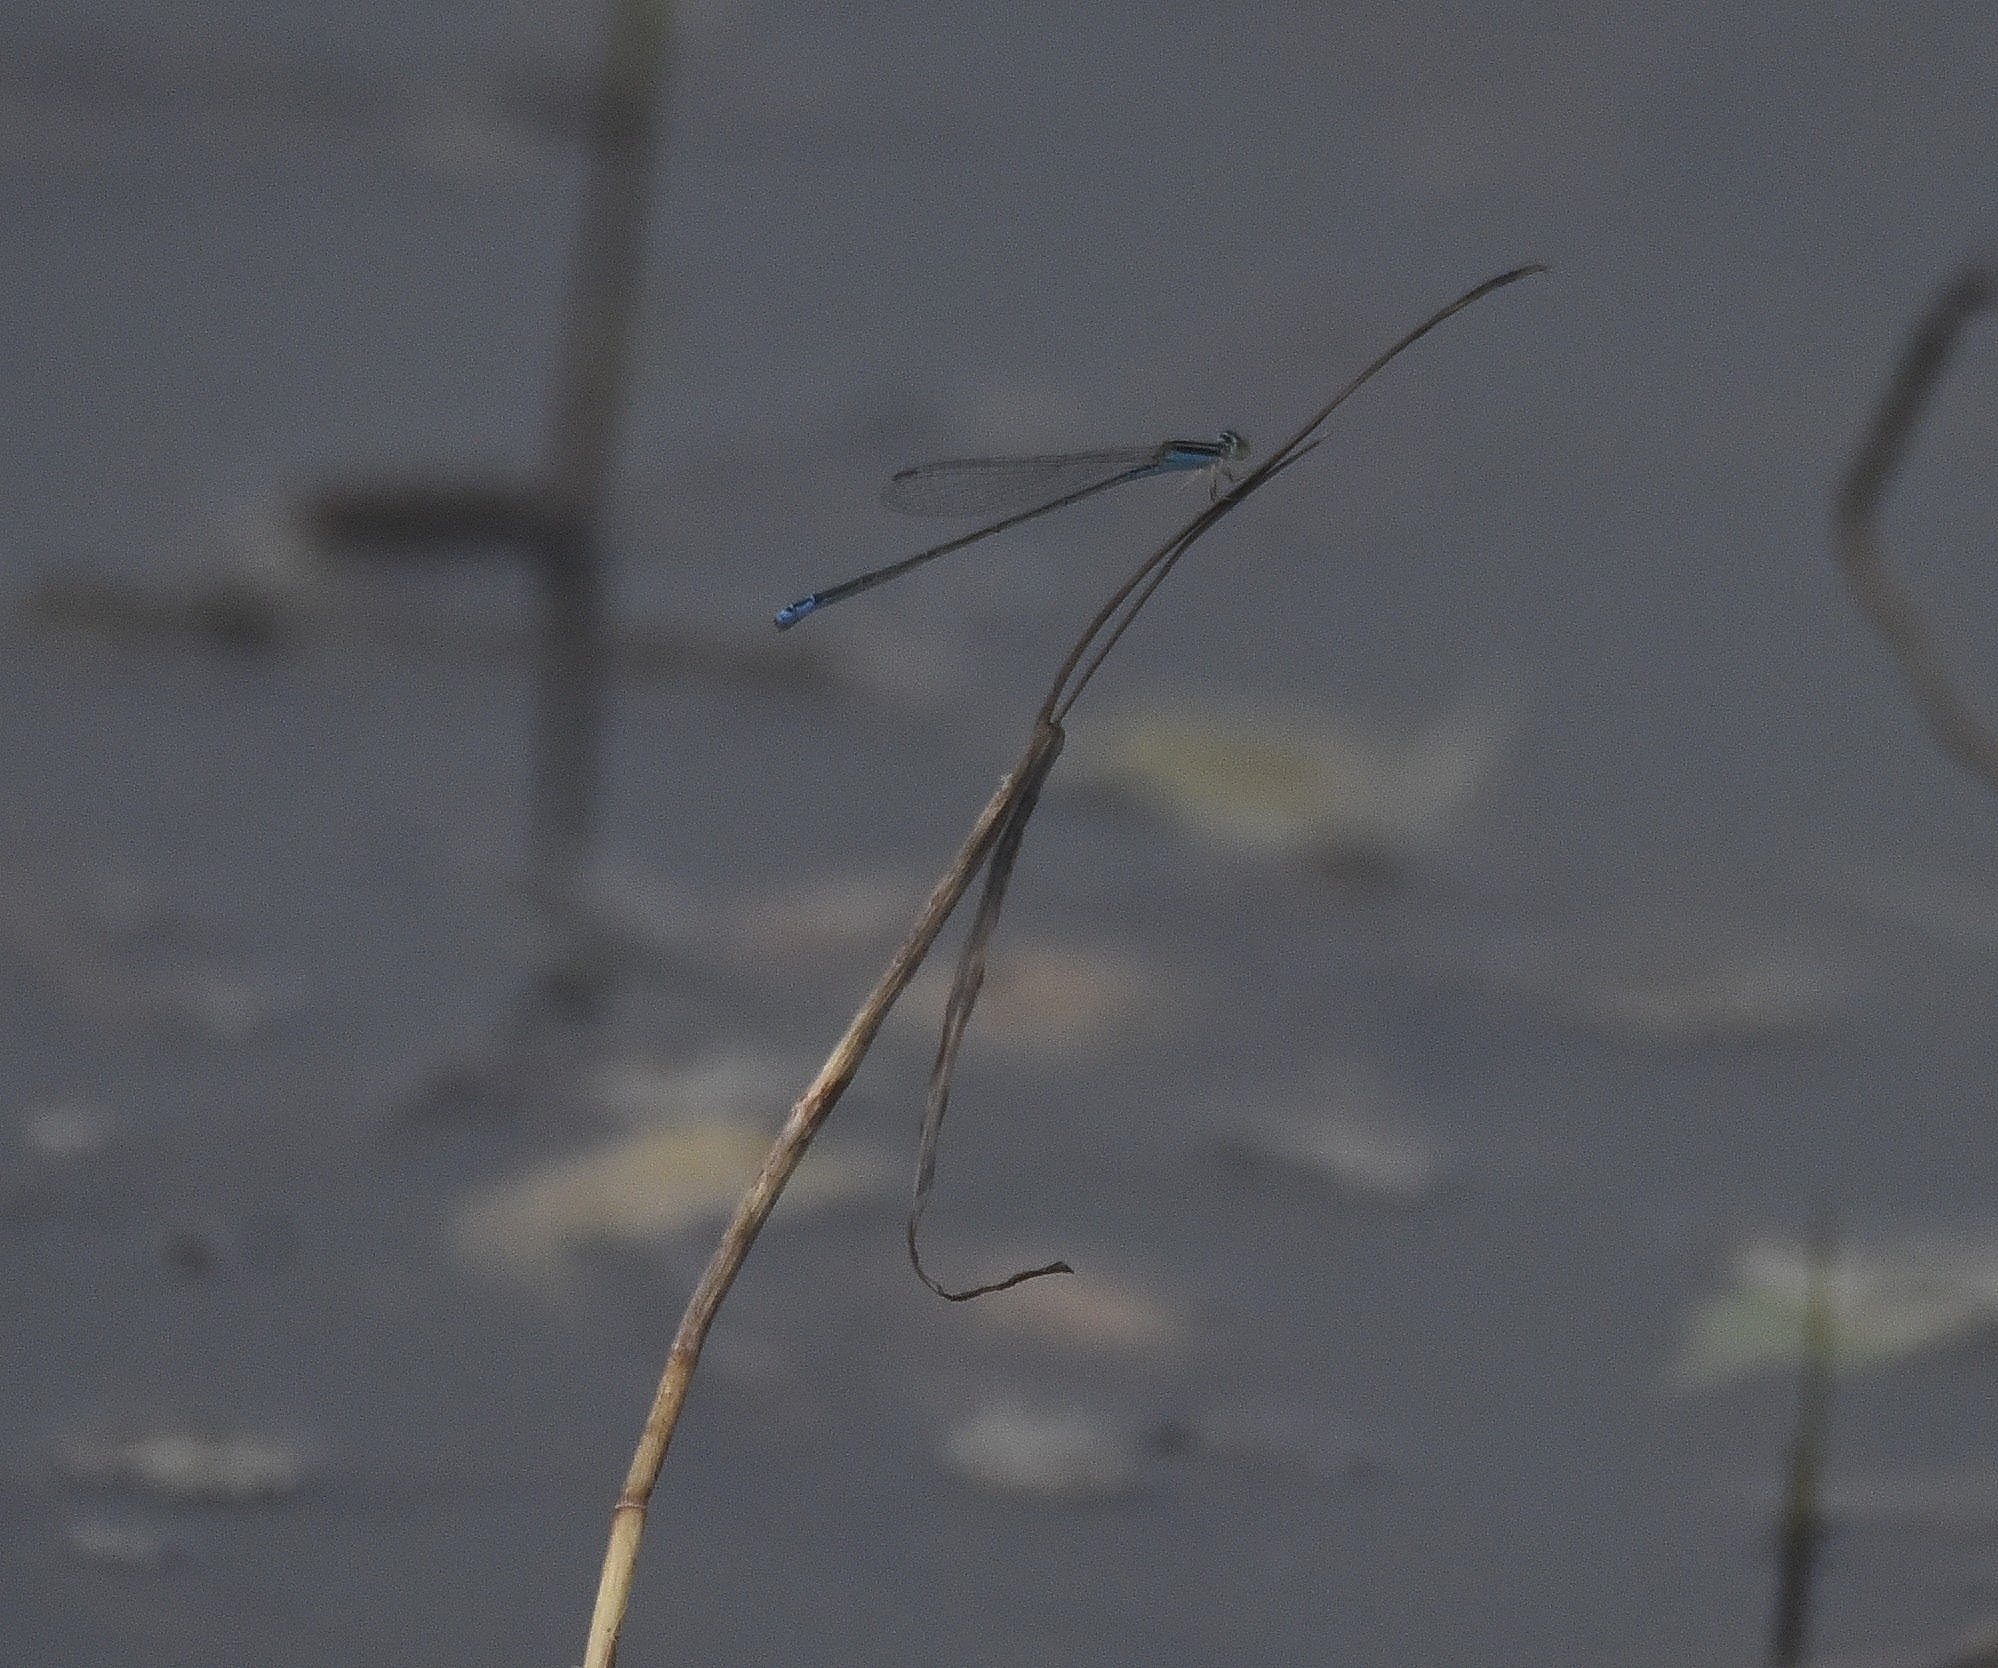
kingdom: Animalia
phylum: Arthropoda
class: Insecta
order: Odonata
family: Coenagrionidae
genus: Aciagrion
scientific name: Aciagrion occidentale
